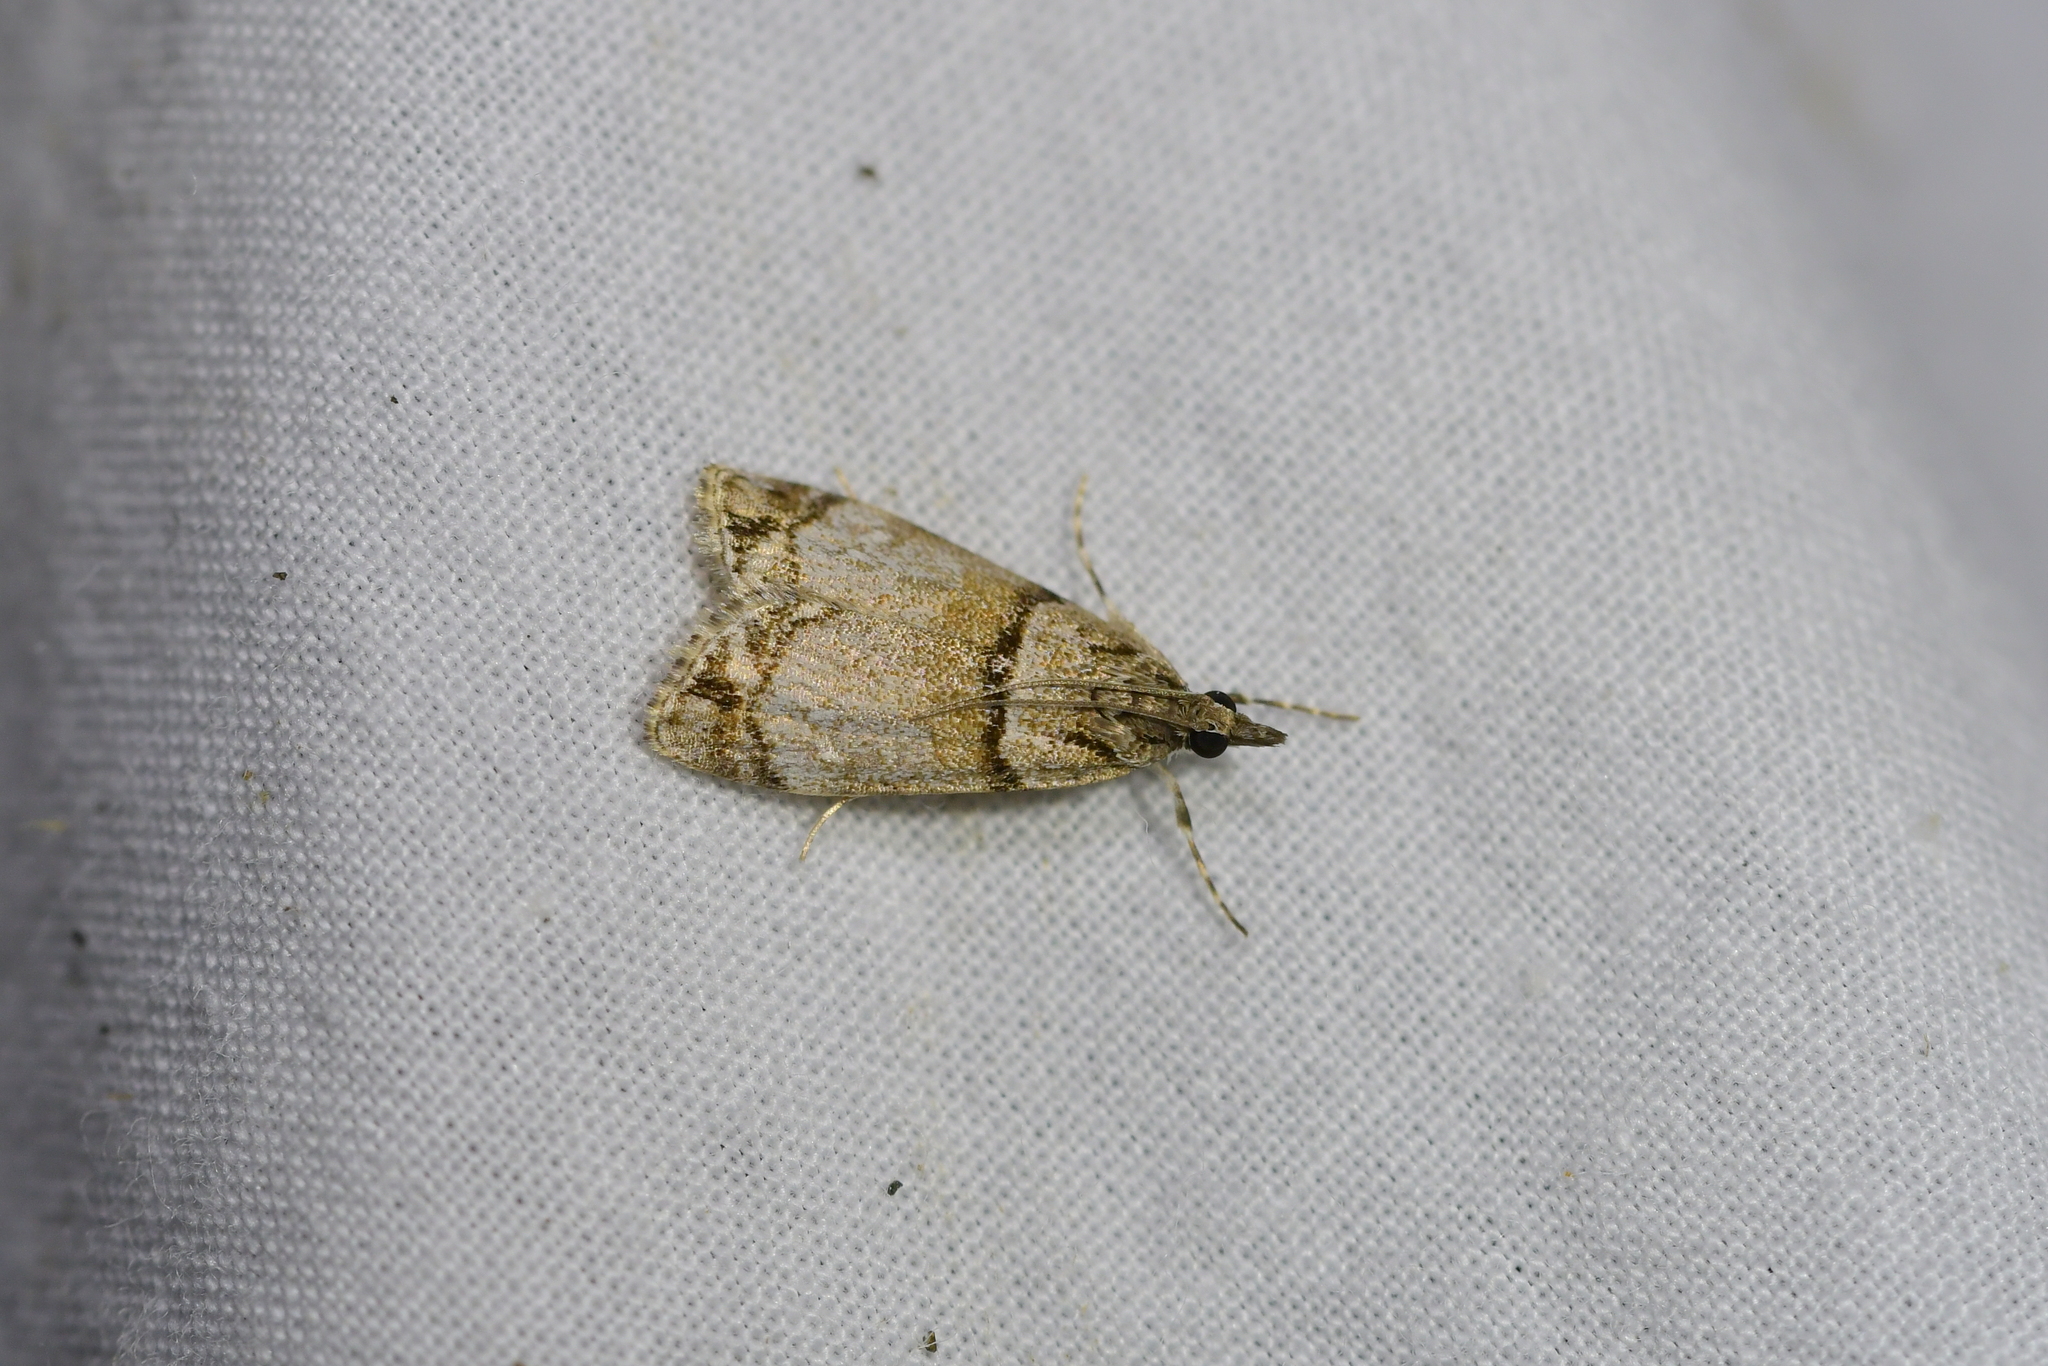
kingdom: Animalia
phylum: Arthropoda
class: Insecta
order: Lepidoptera
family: Crambidae
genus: Eudonia
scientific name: Eudonia choristis
